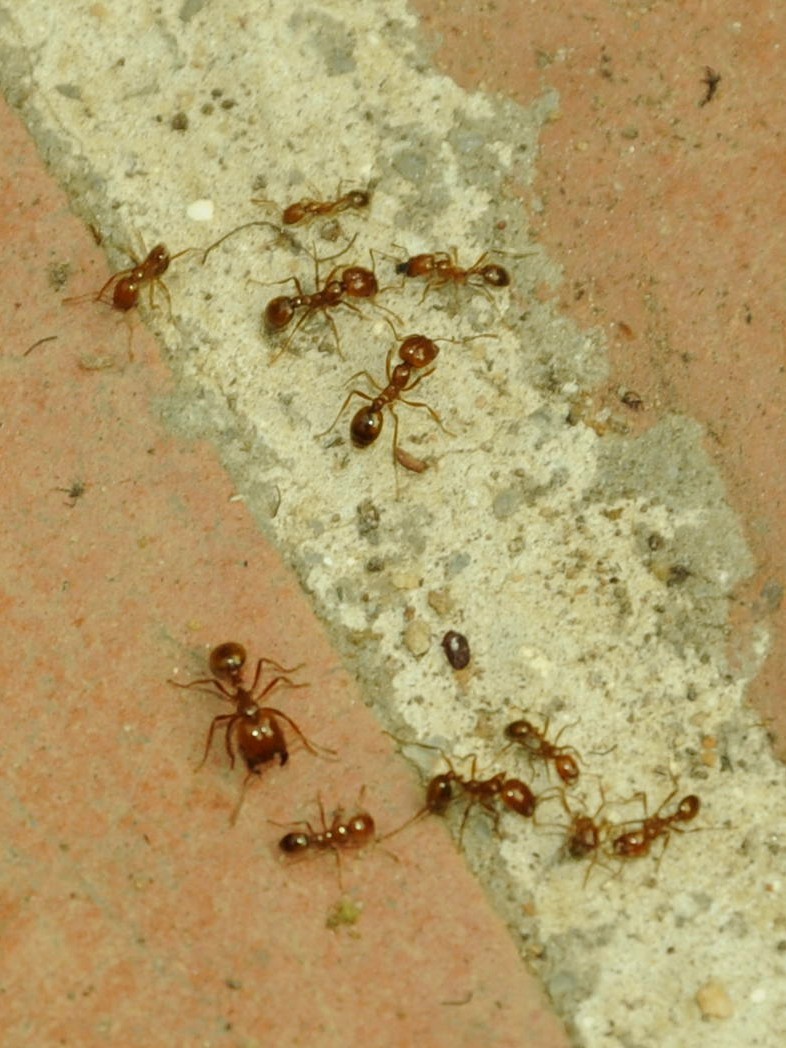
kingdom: Animalia
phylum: Arthropoda
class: Insecta
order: Hymenoptera
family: Formicidae
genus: Solenopsis
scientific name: Solenopsis geminata
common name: Tropical fire ant
